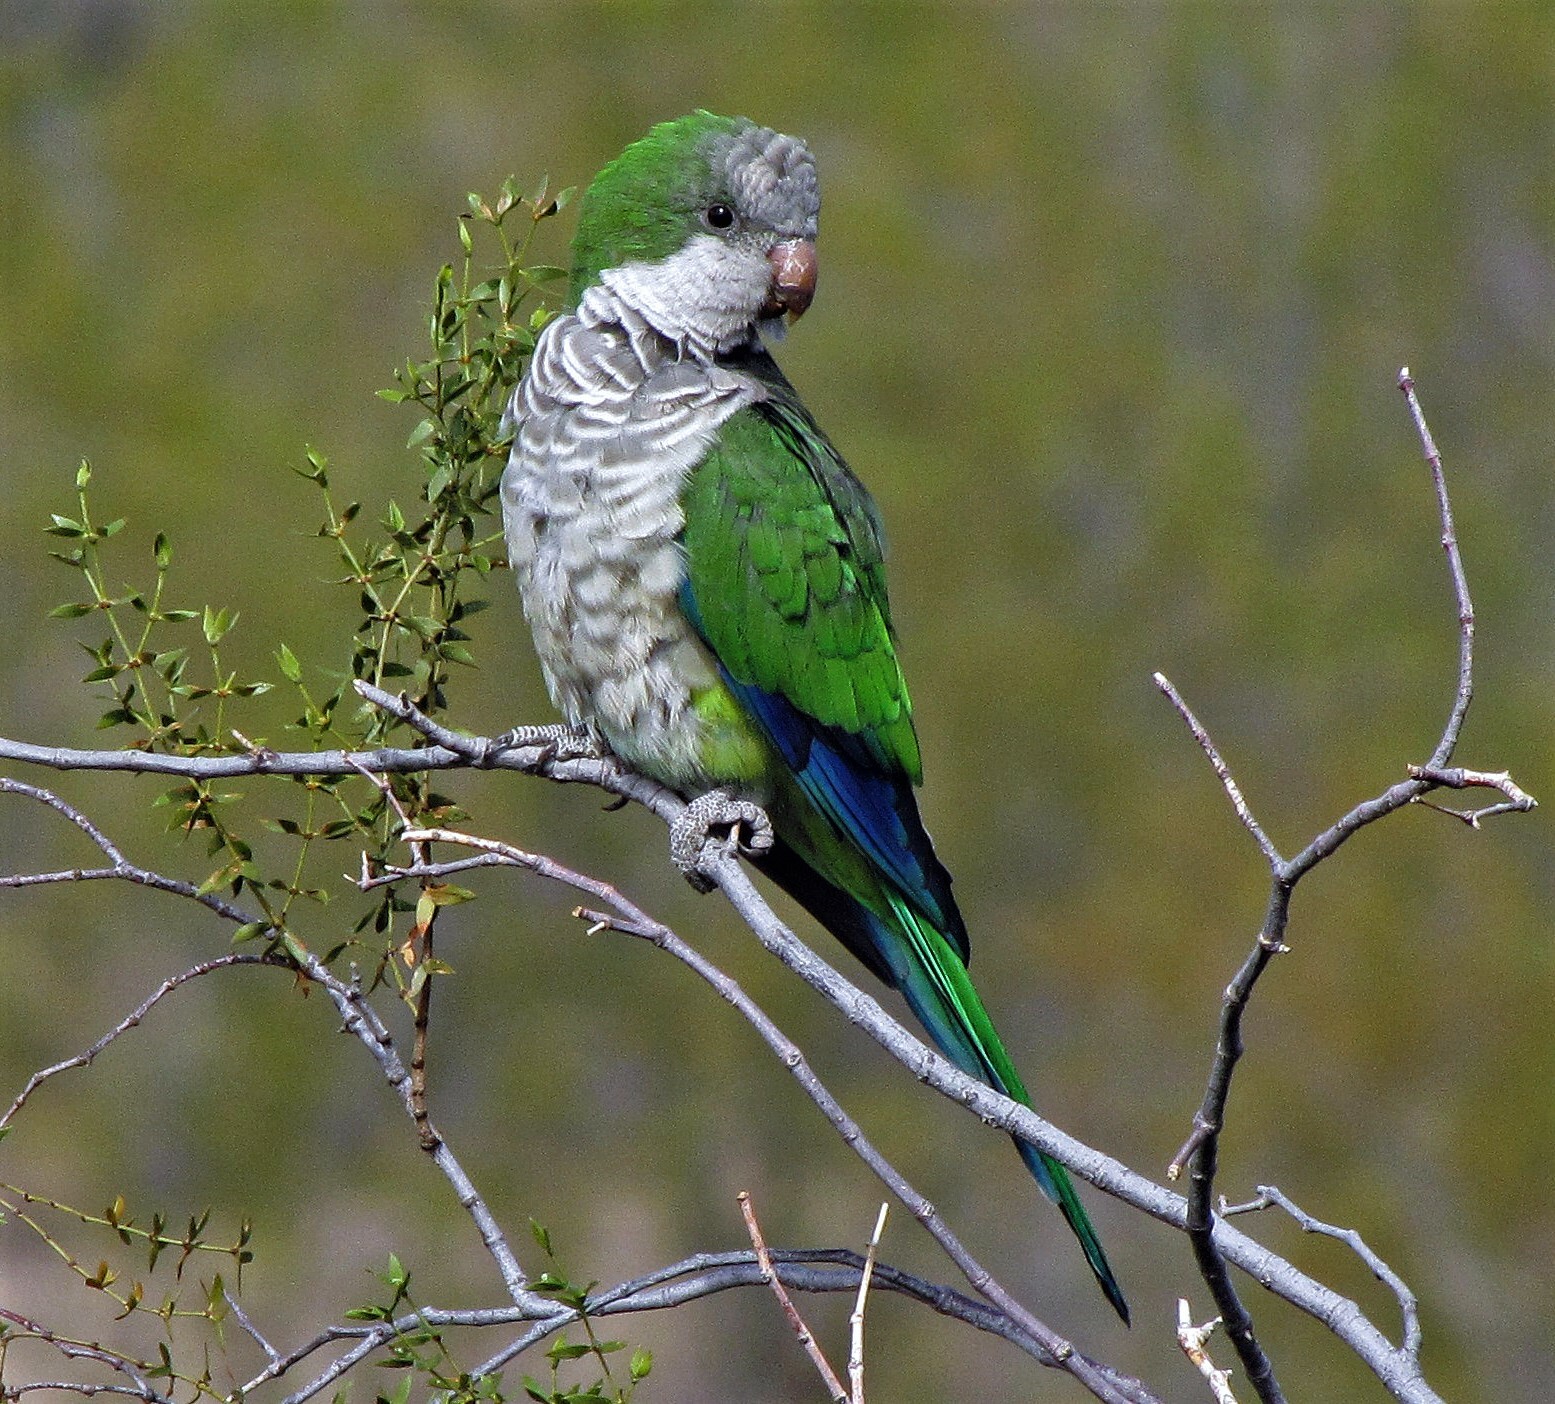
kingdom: Animalia
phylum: Chordata
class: Aves
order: Psittaciformes
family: Psittacidae
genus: Myiopsitta
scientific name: Myiopsitta monachus
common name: Monk parakeet
